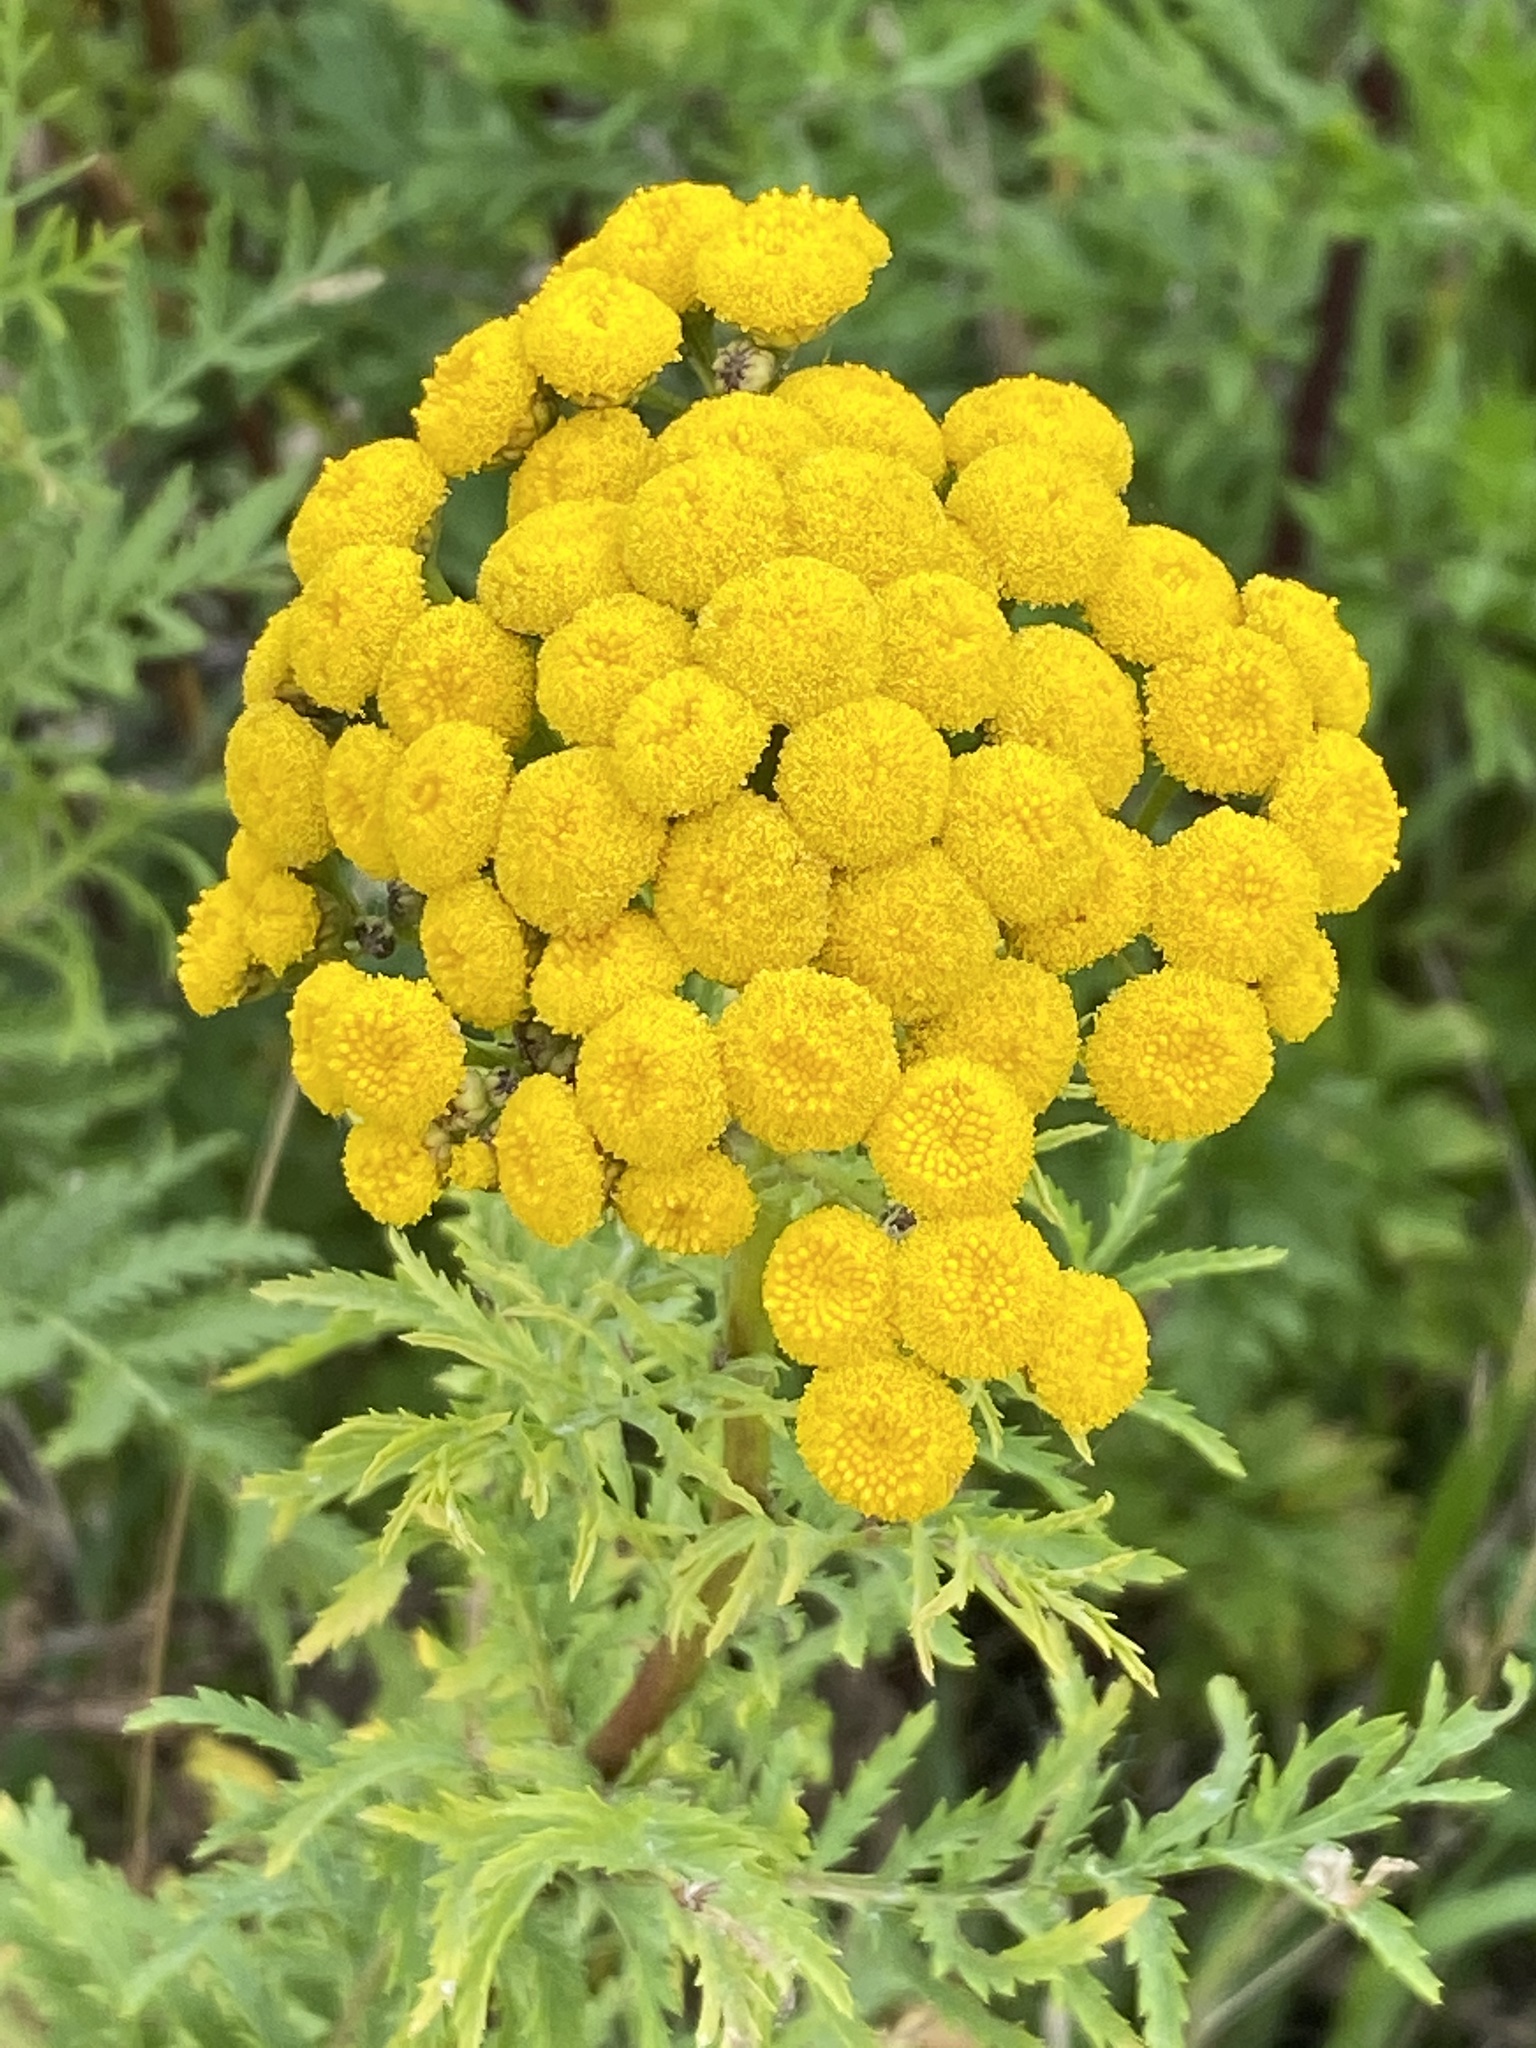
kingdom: Plantae
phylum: Tracheophyta
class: Magnoliopsida
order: Asterales
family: Asteraceae
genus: Tanacetum
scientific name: Tanacetum vulgare
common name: Common tansy
